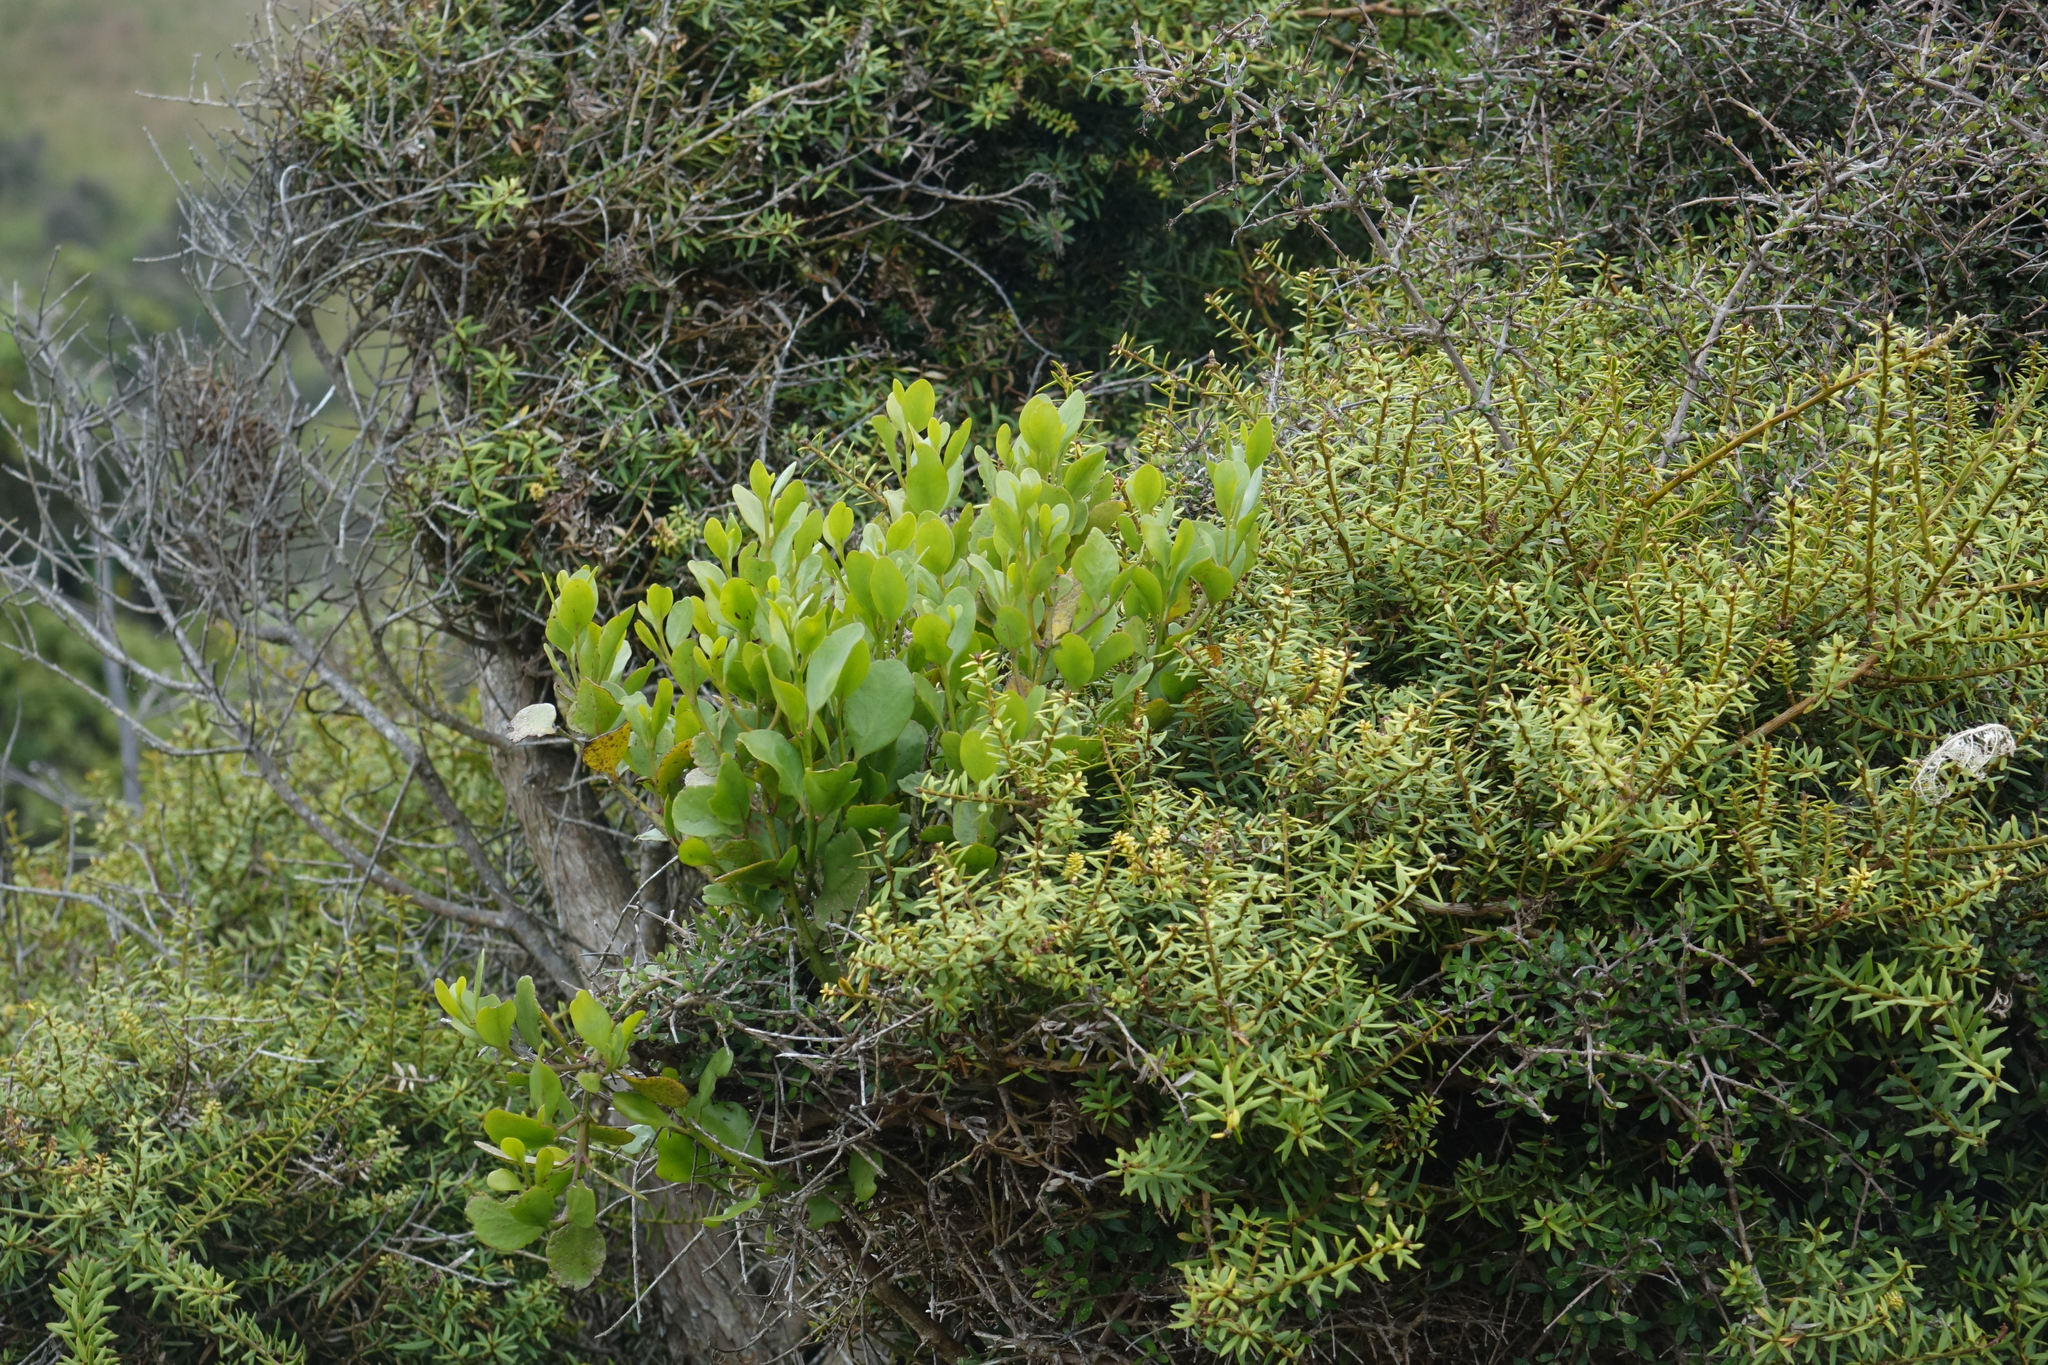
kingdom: Plantae
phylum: Tracheophyta
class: Magnoliopsida
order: Santalales
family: Loranthaceae
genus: Ileostylus
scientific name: Ileostylus micranthus
